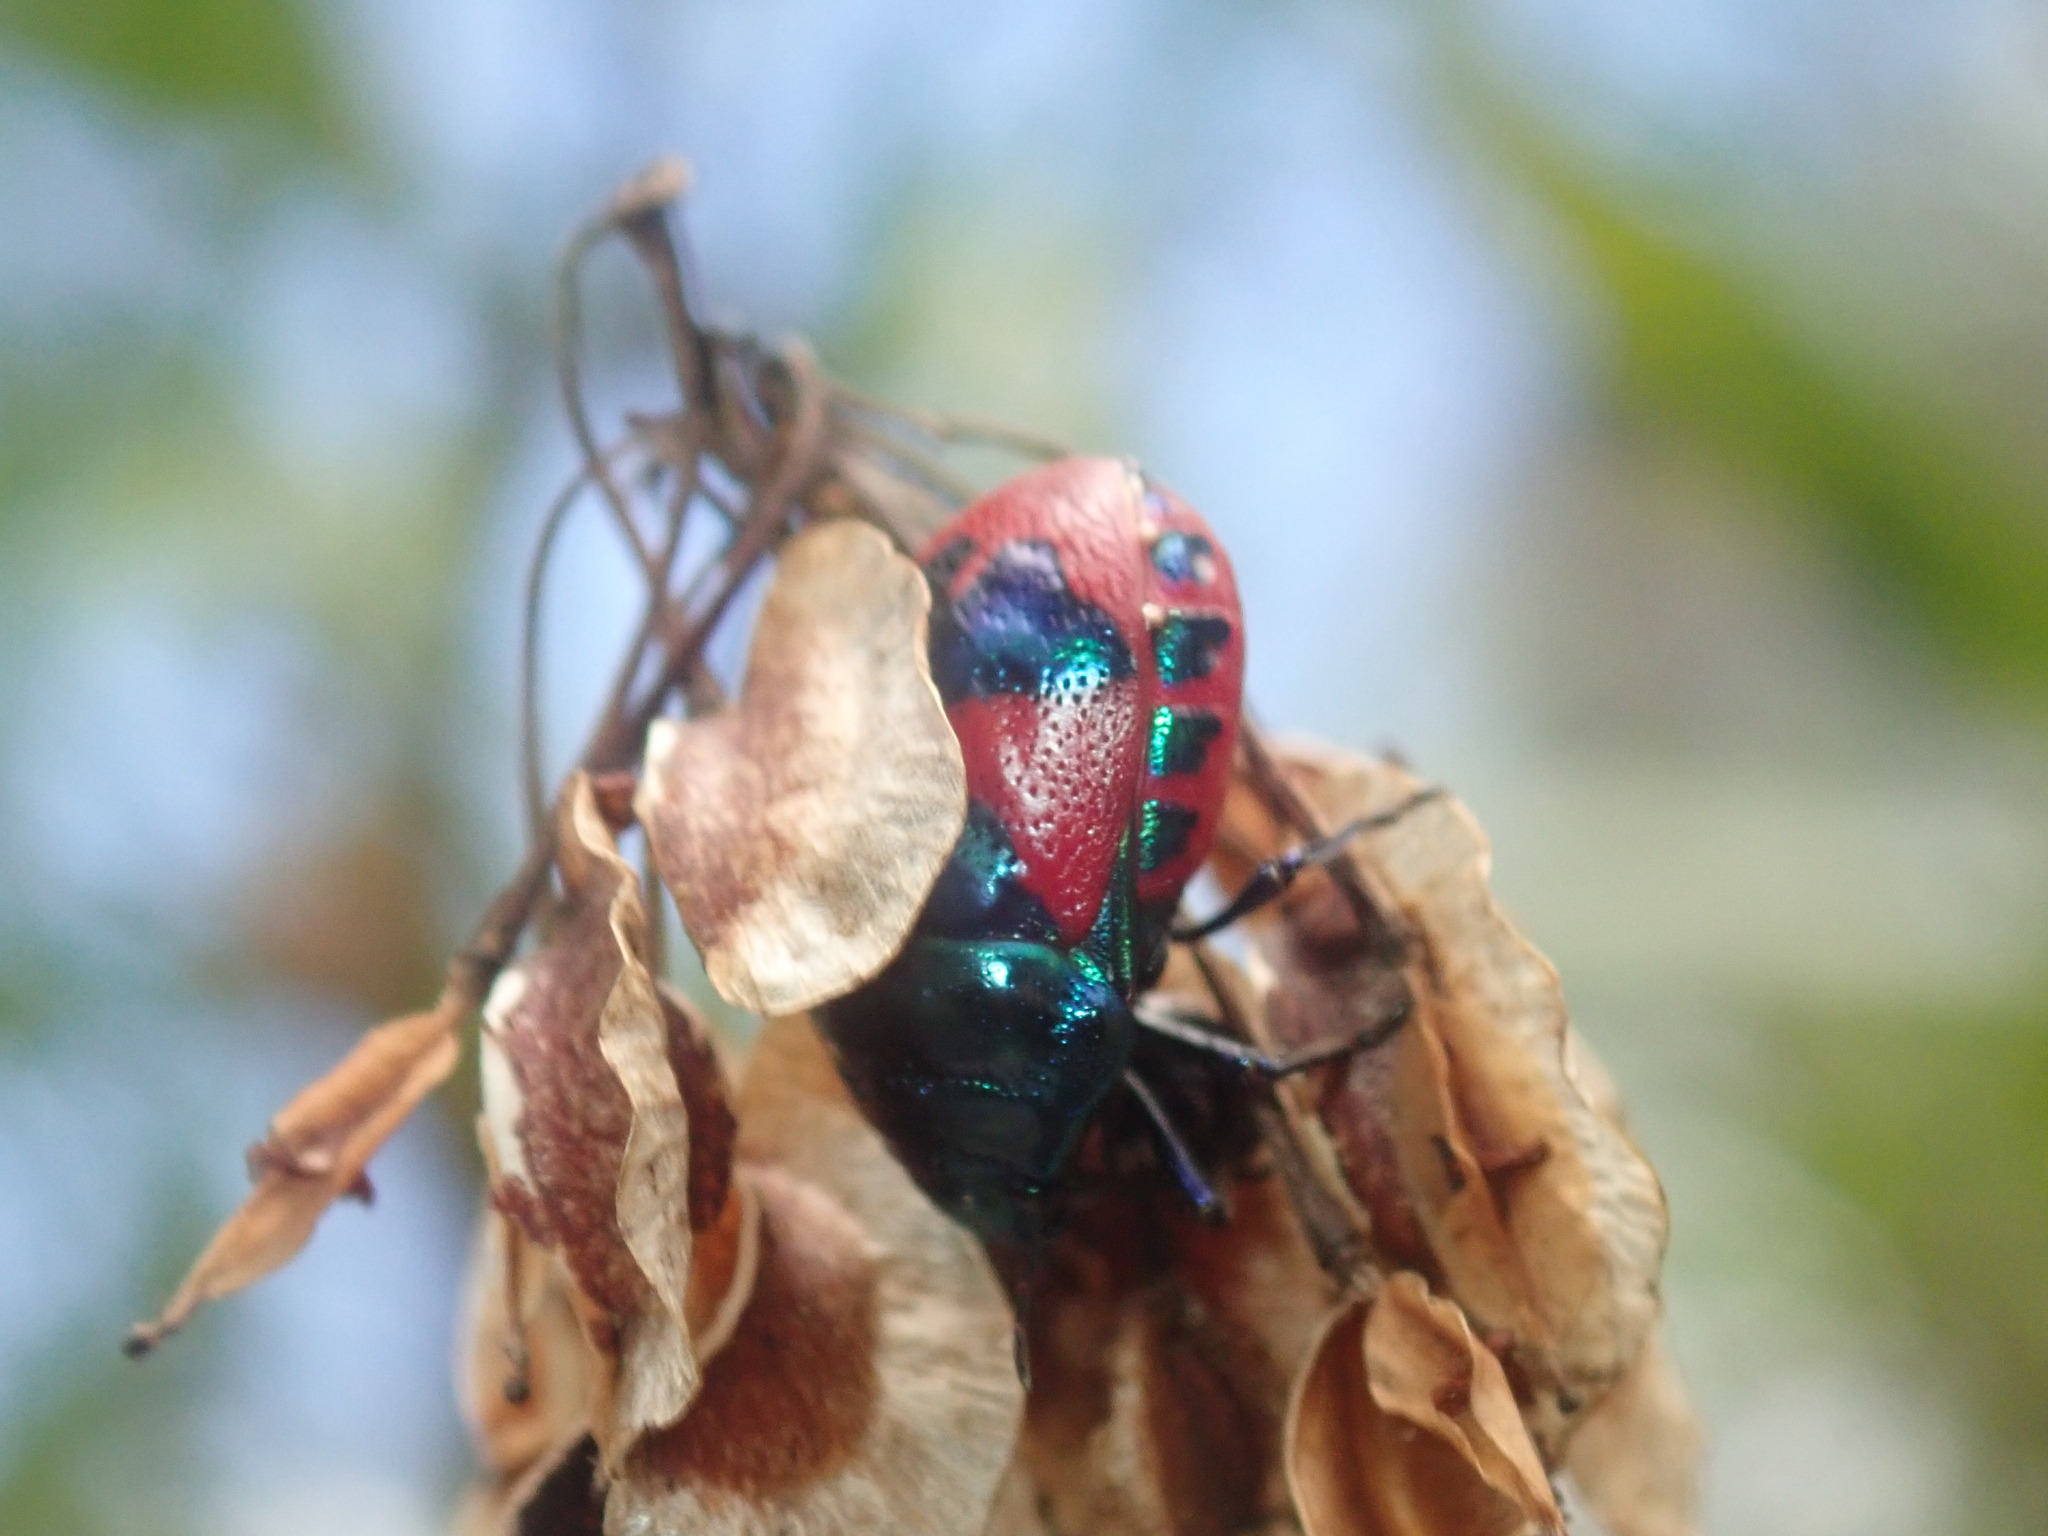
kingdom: Animalia
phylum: Arthropoda
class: Insecta
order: Hemiptera
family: Scutelleridae
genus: Choerocoris
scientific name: Choerocoris paganus
